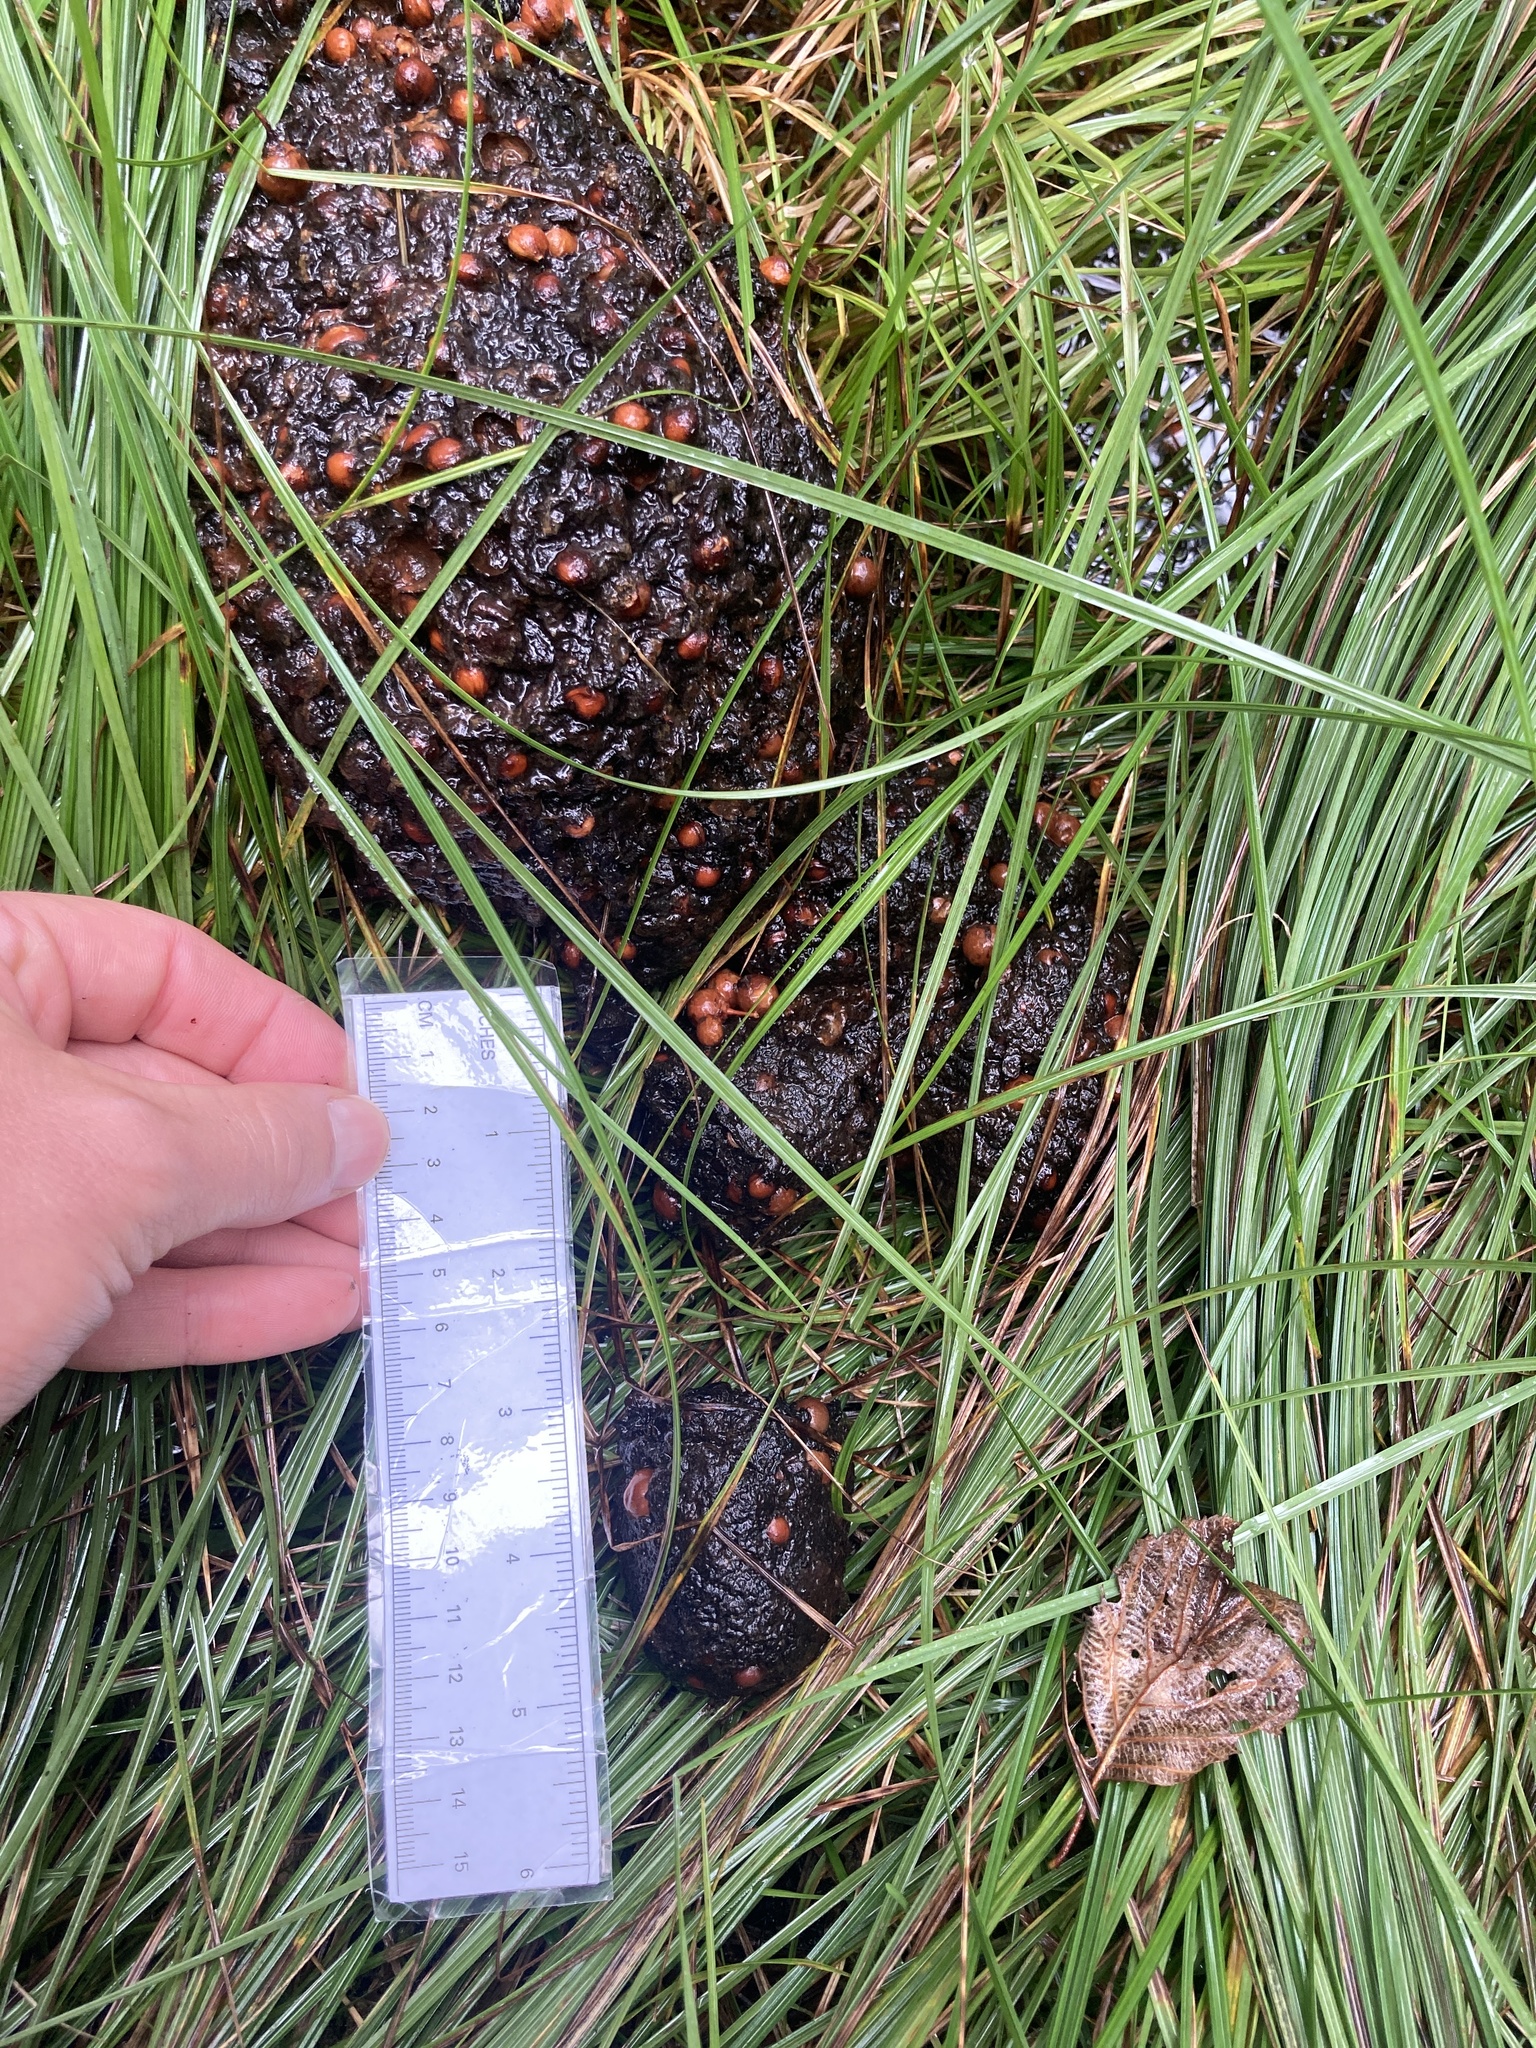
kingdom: Animalia
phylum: Chordata
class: Mammalia
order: Carnivora
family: Ursidae
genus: Ursus
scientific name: Ursus americanus
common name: American black bear
